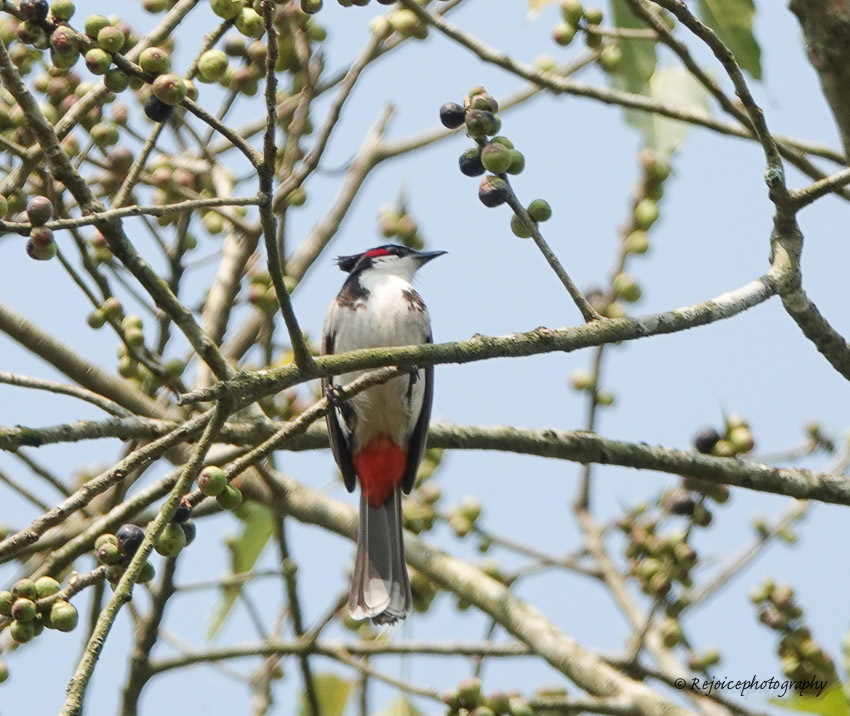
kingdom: Animalia
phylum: Chordata
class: Aves
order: Passeriformes
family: Pycnonotidae
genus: Pycnonotus
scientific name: Pycnonotus jocosus
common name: Red-whiskered bulbul
